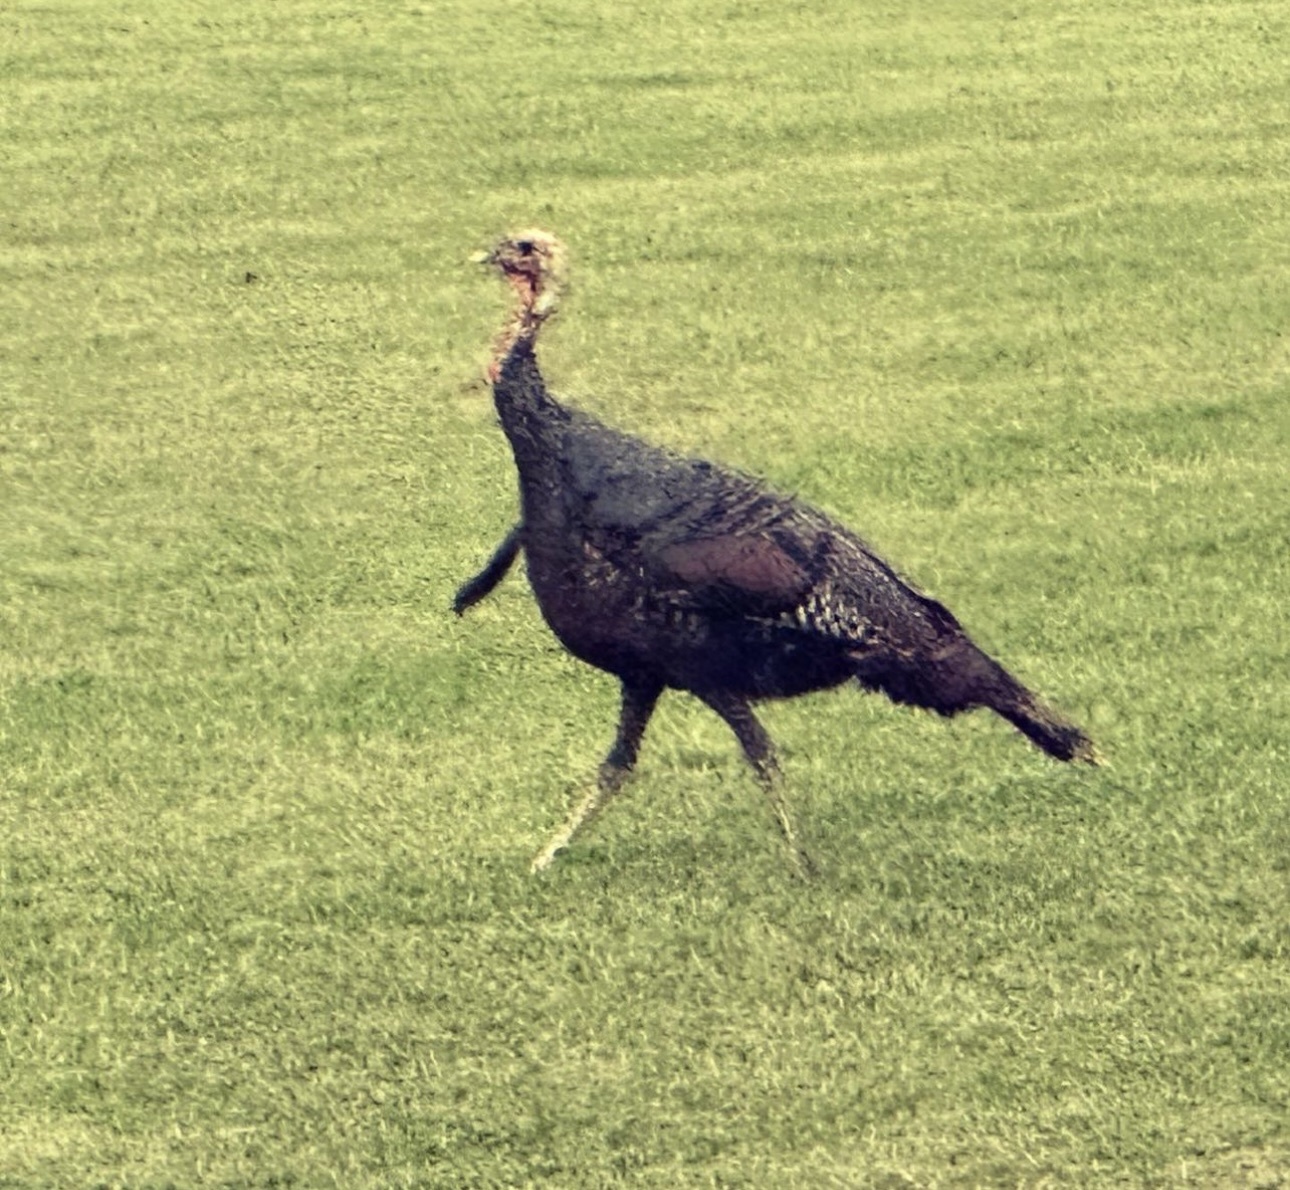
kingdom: Animalia
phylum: Chordata
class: Aves
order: Galliformes
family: Phasianidae
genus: Meleagris
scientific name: Meleagris gallopavo
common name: Wild turkey
